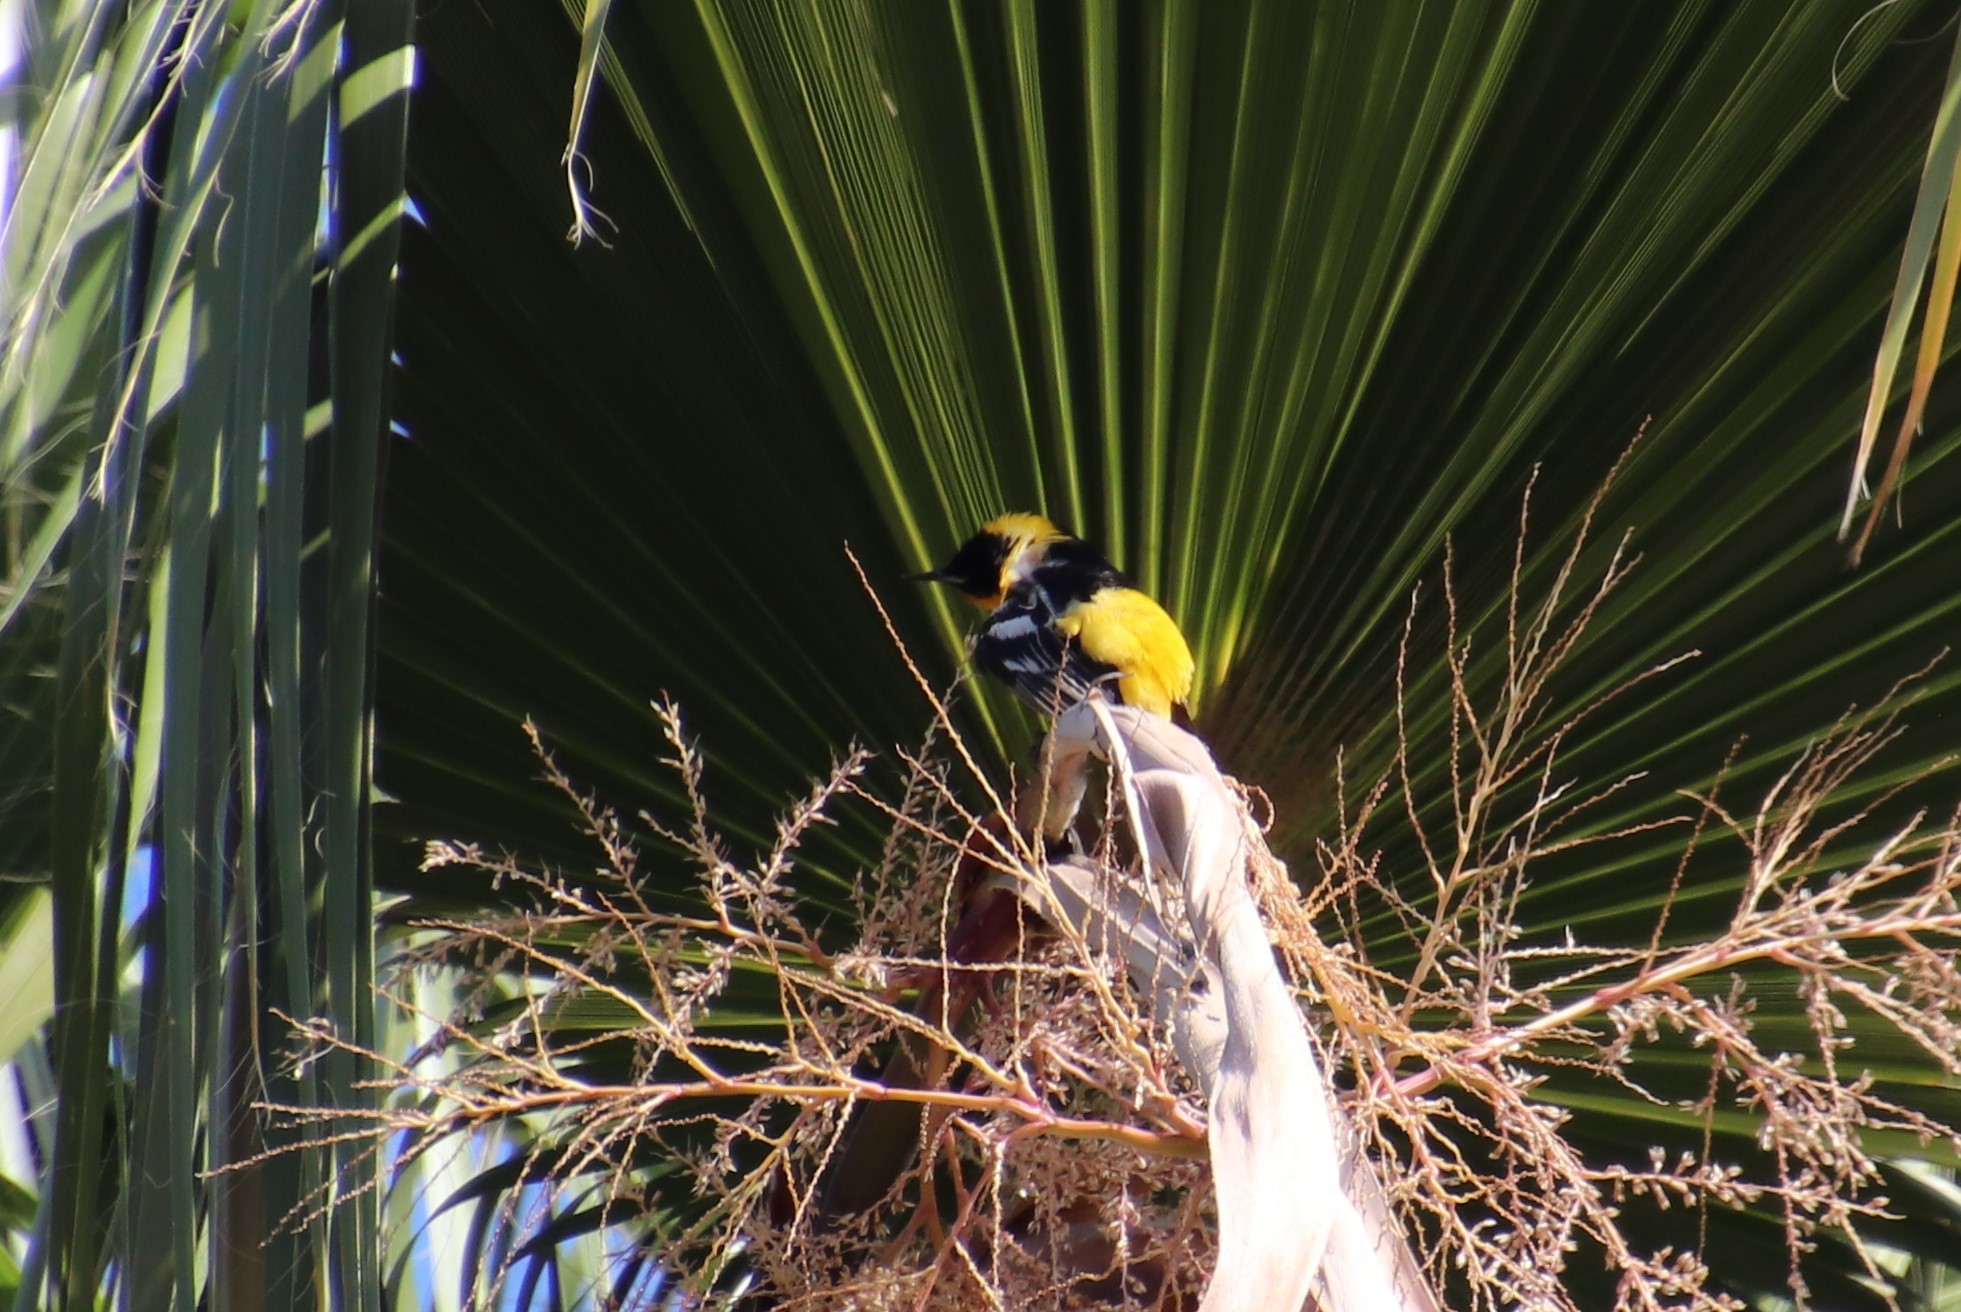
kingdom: Animalia
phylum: Chordata
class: Aves
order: Passeriformes
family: Icteridae
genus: Icterus
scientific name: Icterus cucullatus
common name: Hooded oriole
